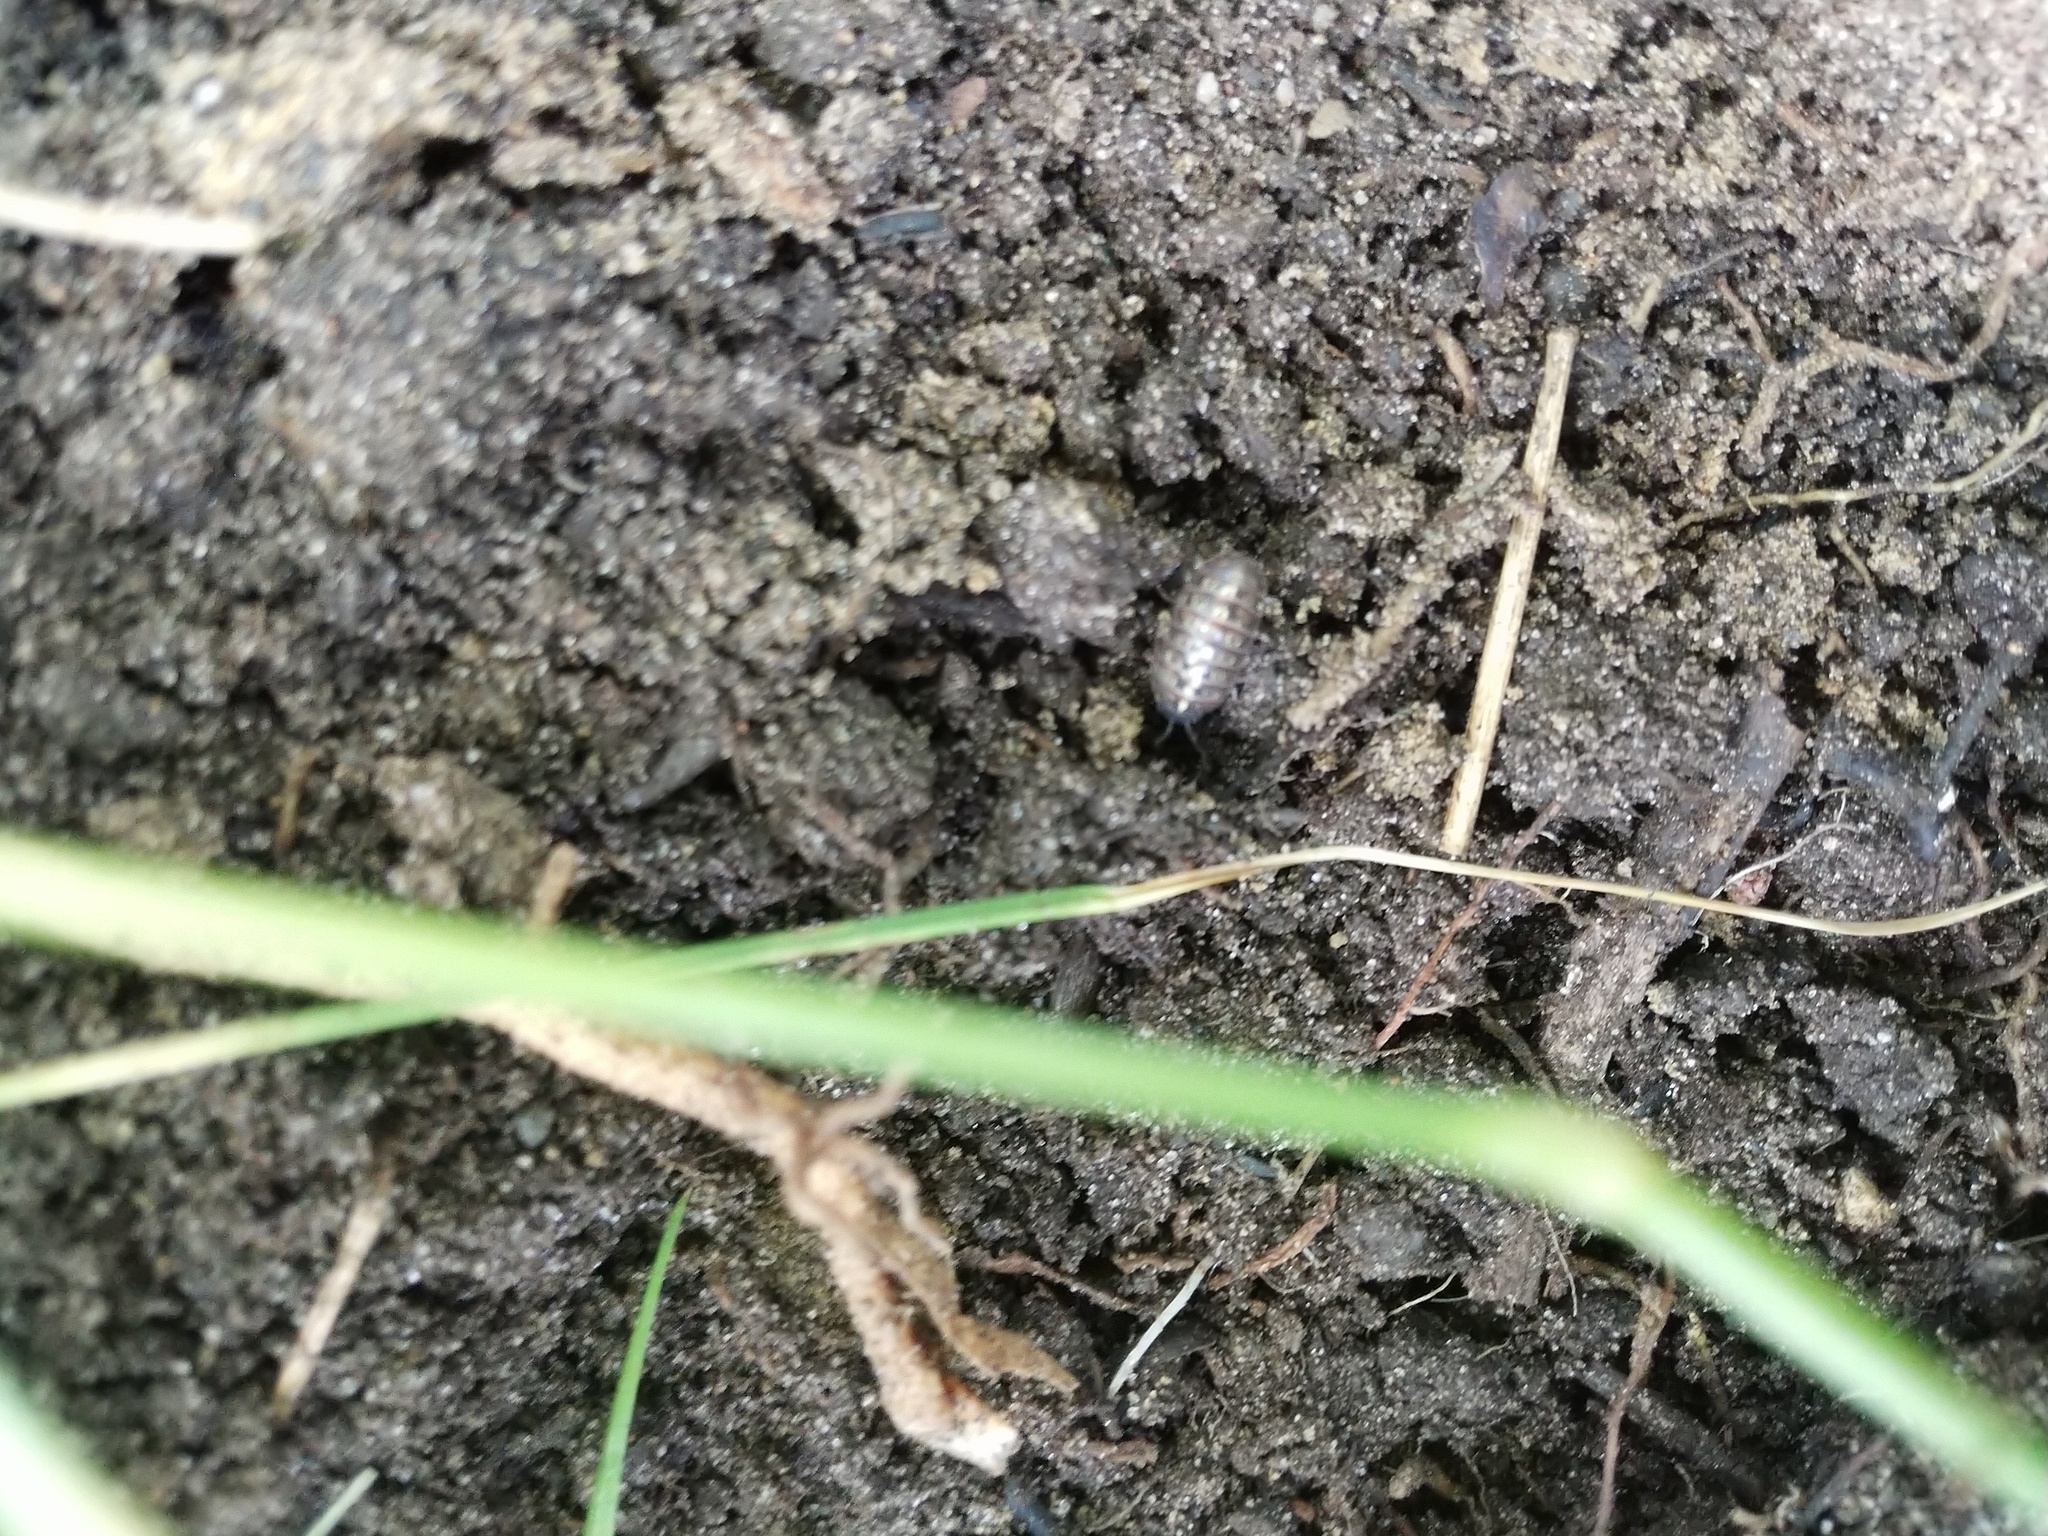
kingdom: Animalia
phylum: Arthropoda
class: Malacostraca
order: Isopoda
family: Armadillidiidae
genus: Armadillidium
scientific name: Armadillidium vulgare
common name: Common pill woodlouse
